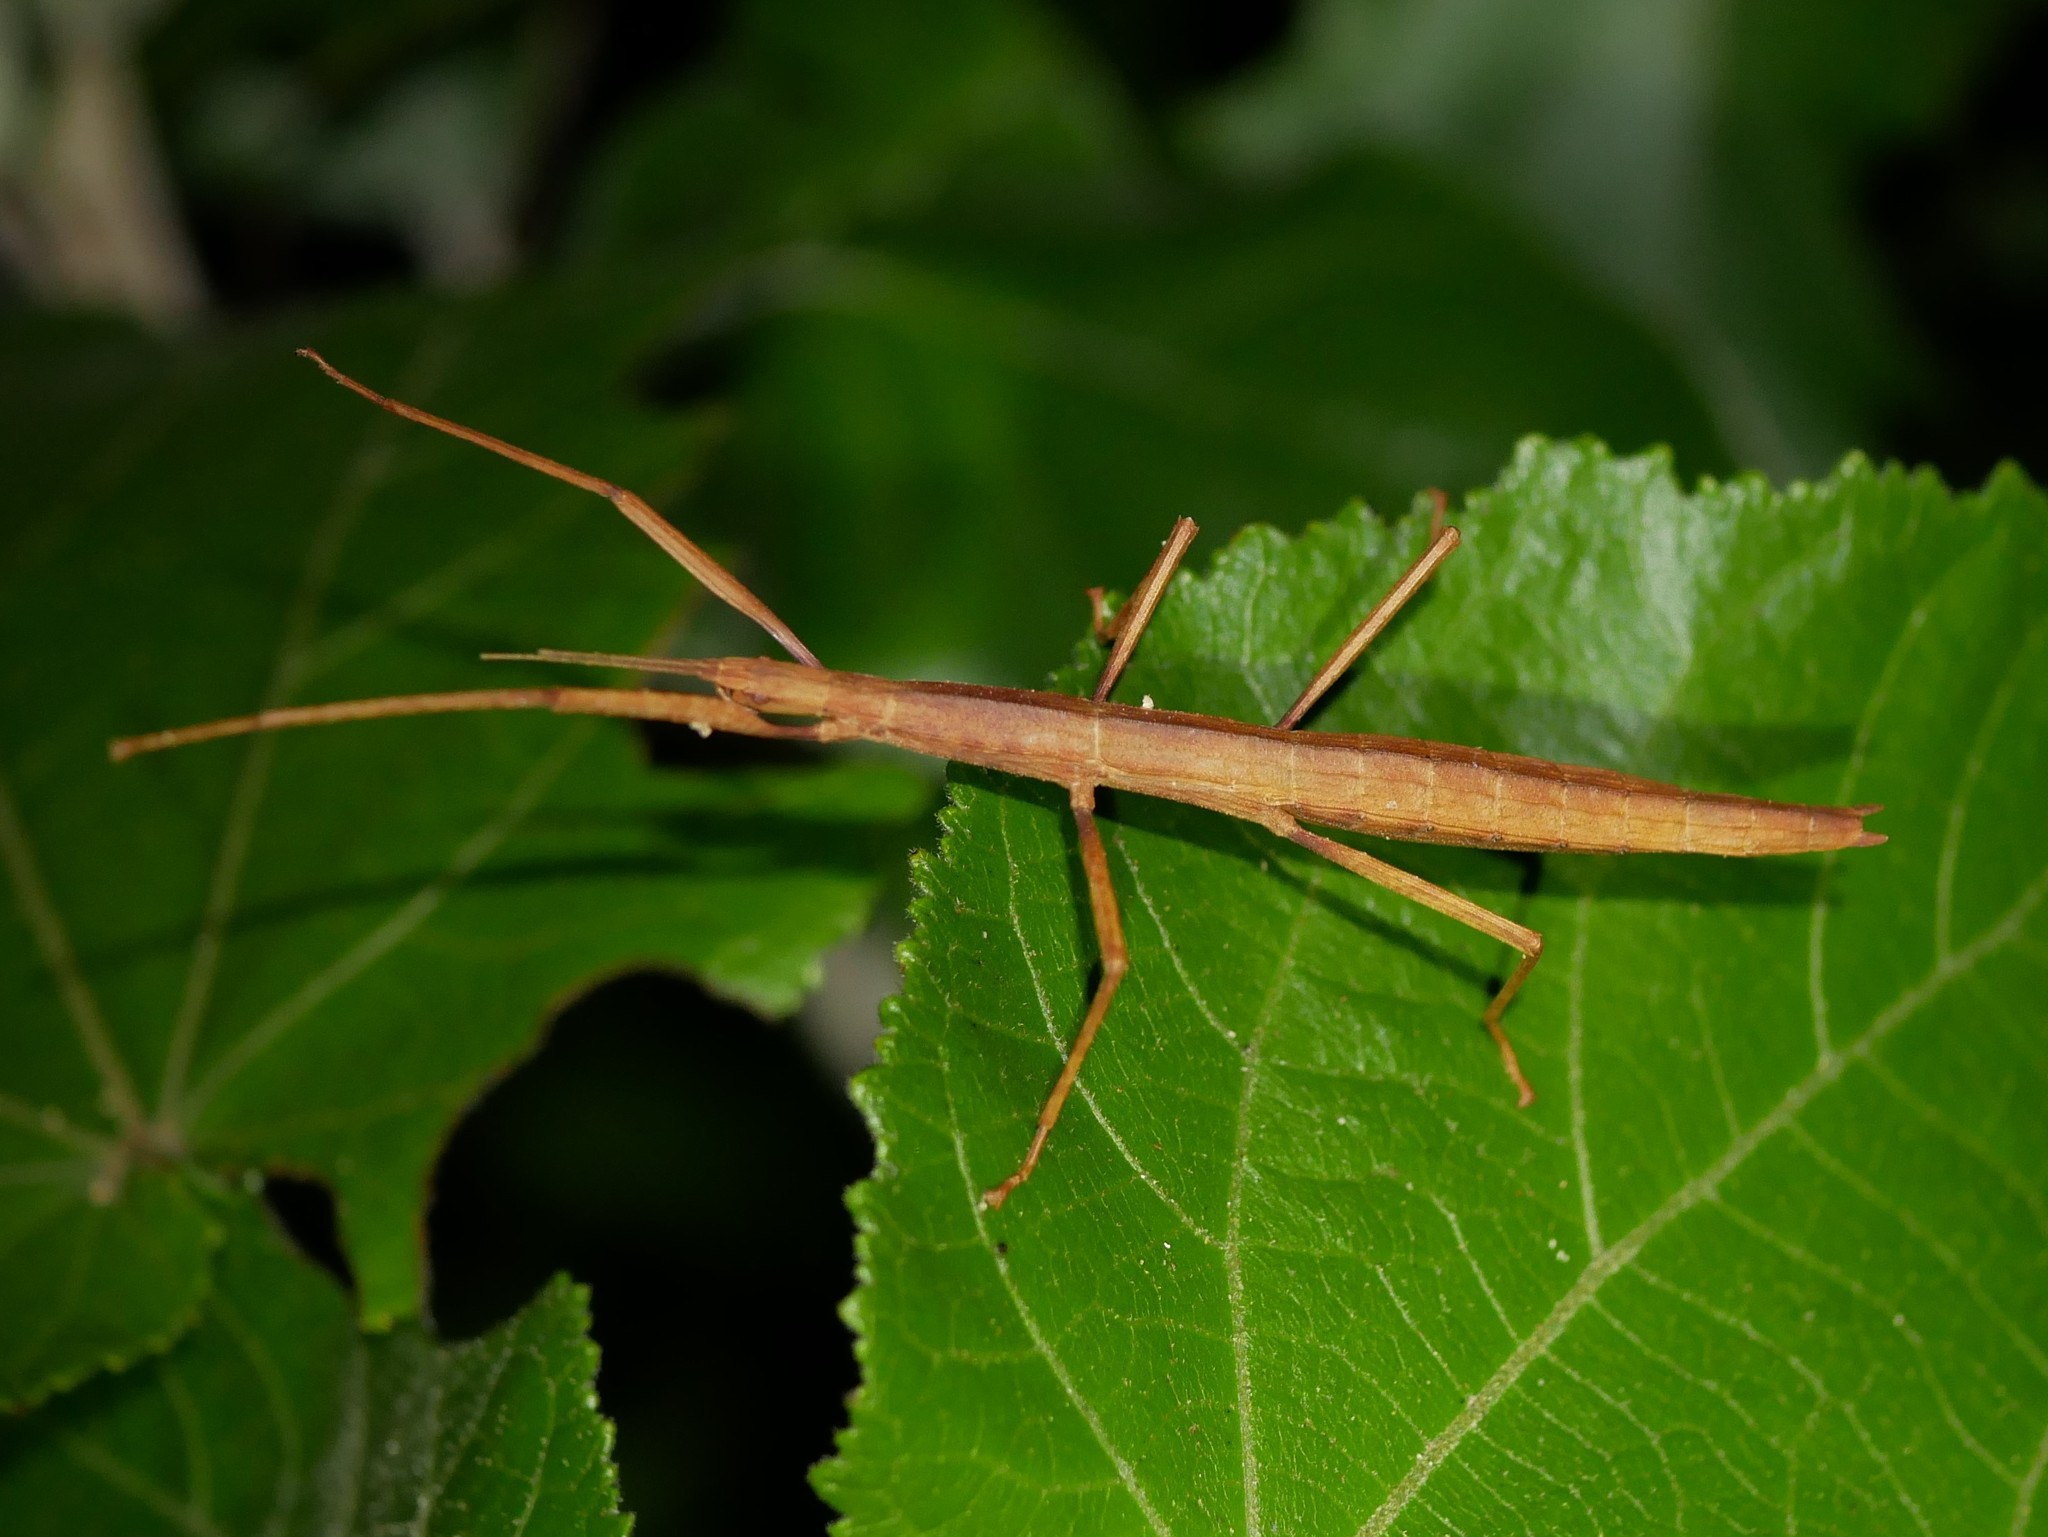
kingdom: Animalia
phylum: Arthropoda
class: Insecta
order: Phasmida
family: Phasmatidae
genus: Tectarchus
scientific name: Tectarchus huttoni
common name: The common ridge-backed stick insect
